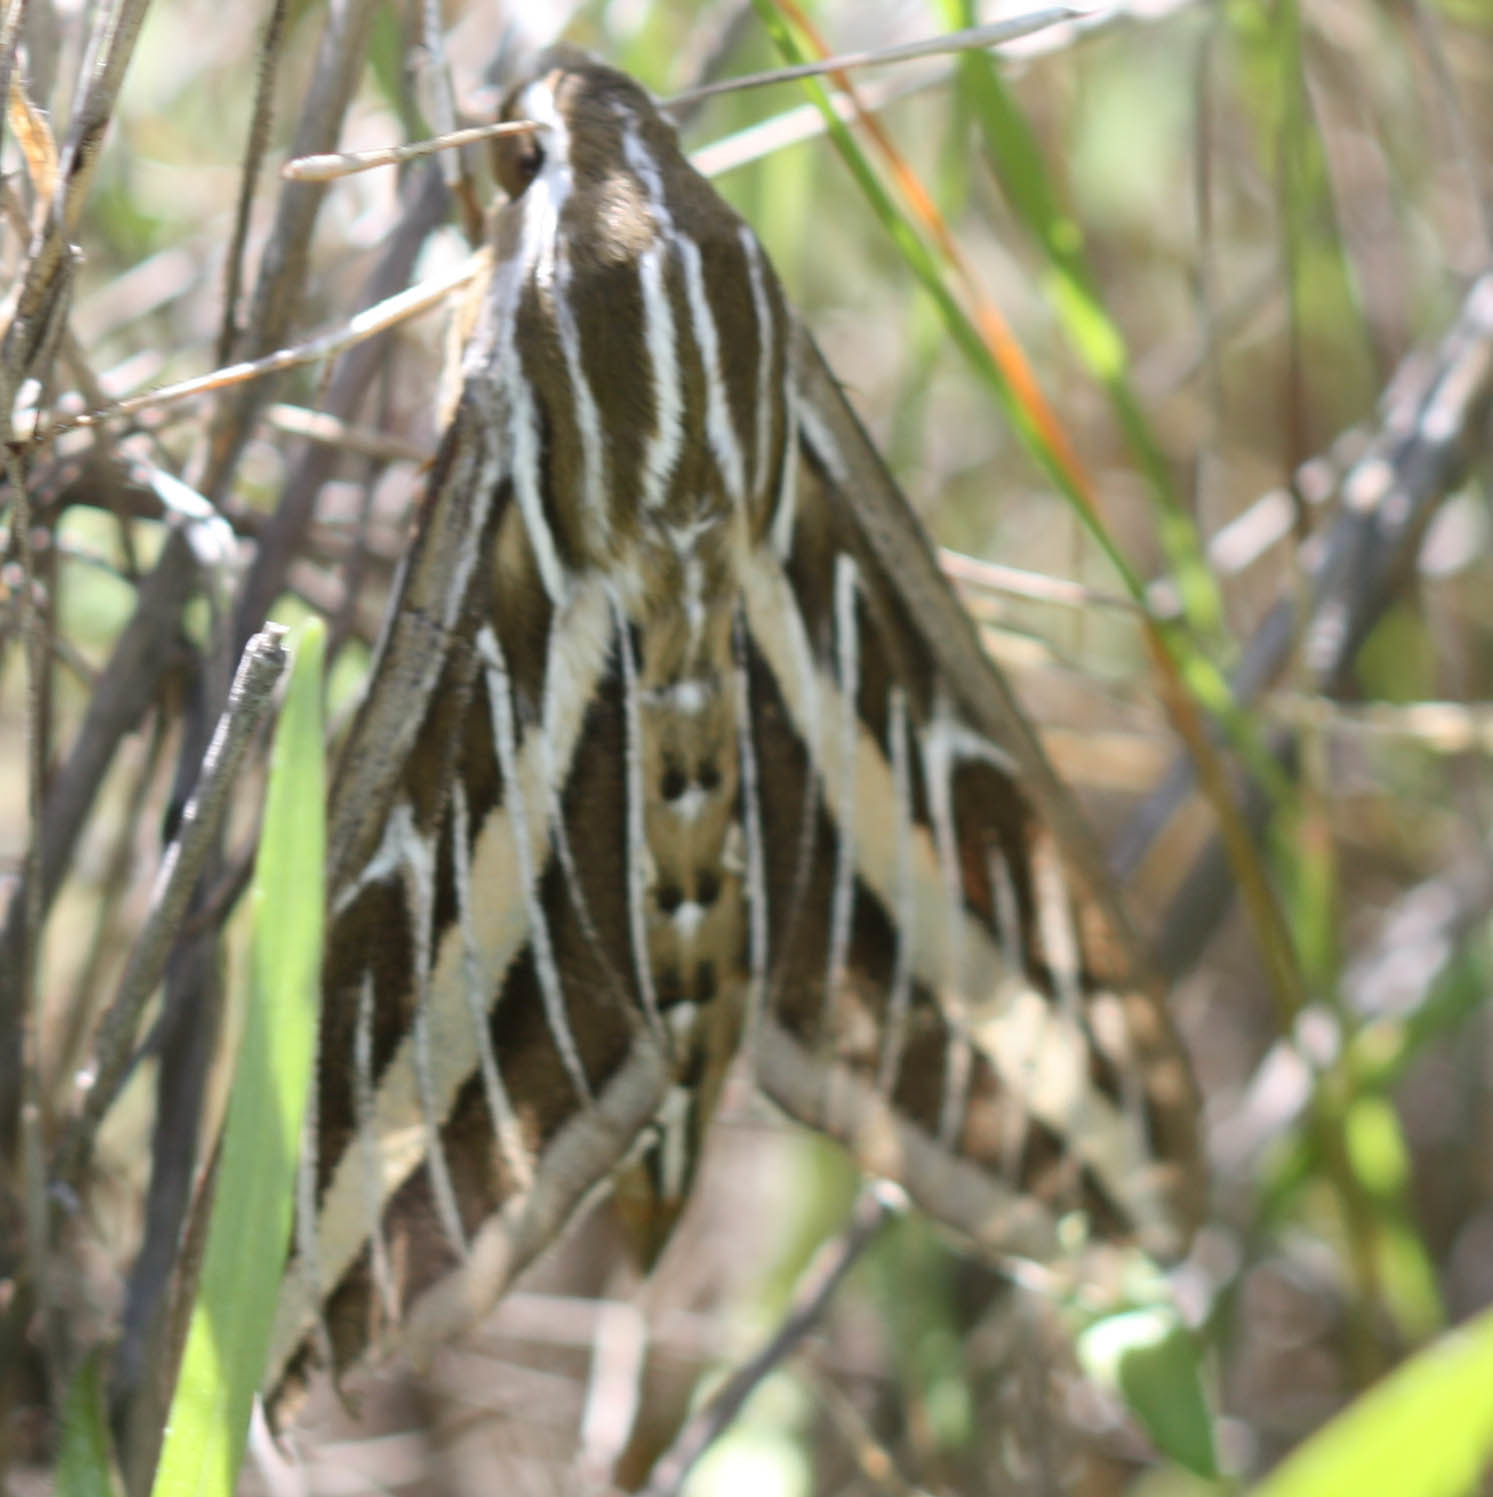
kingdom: Animalia
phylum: Arthropoda
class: Insecta
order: Lepidoptera
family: Sphingidae
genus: Hyles
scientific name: Hyles lineata
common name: White-lined sphinx
